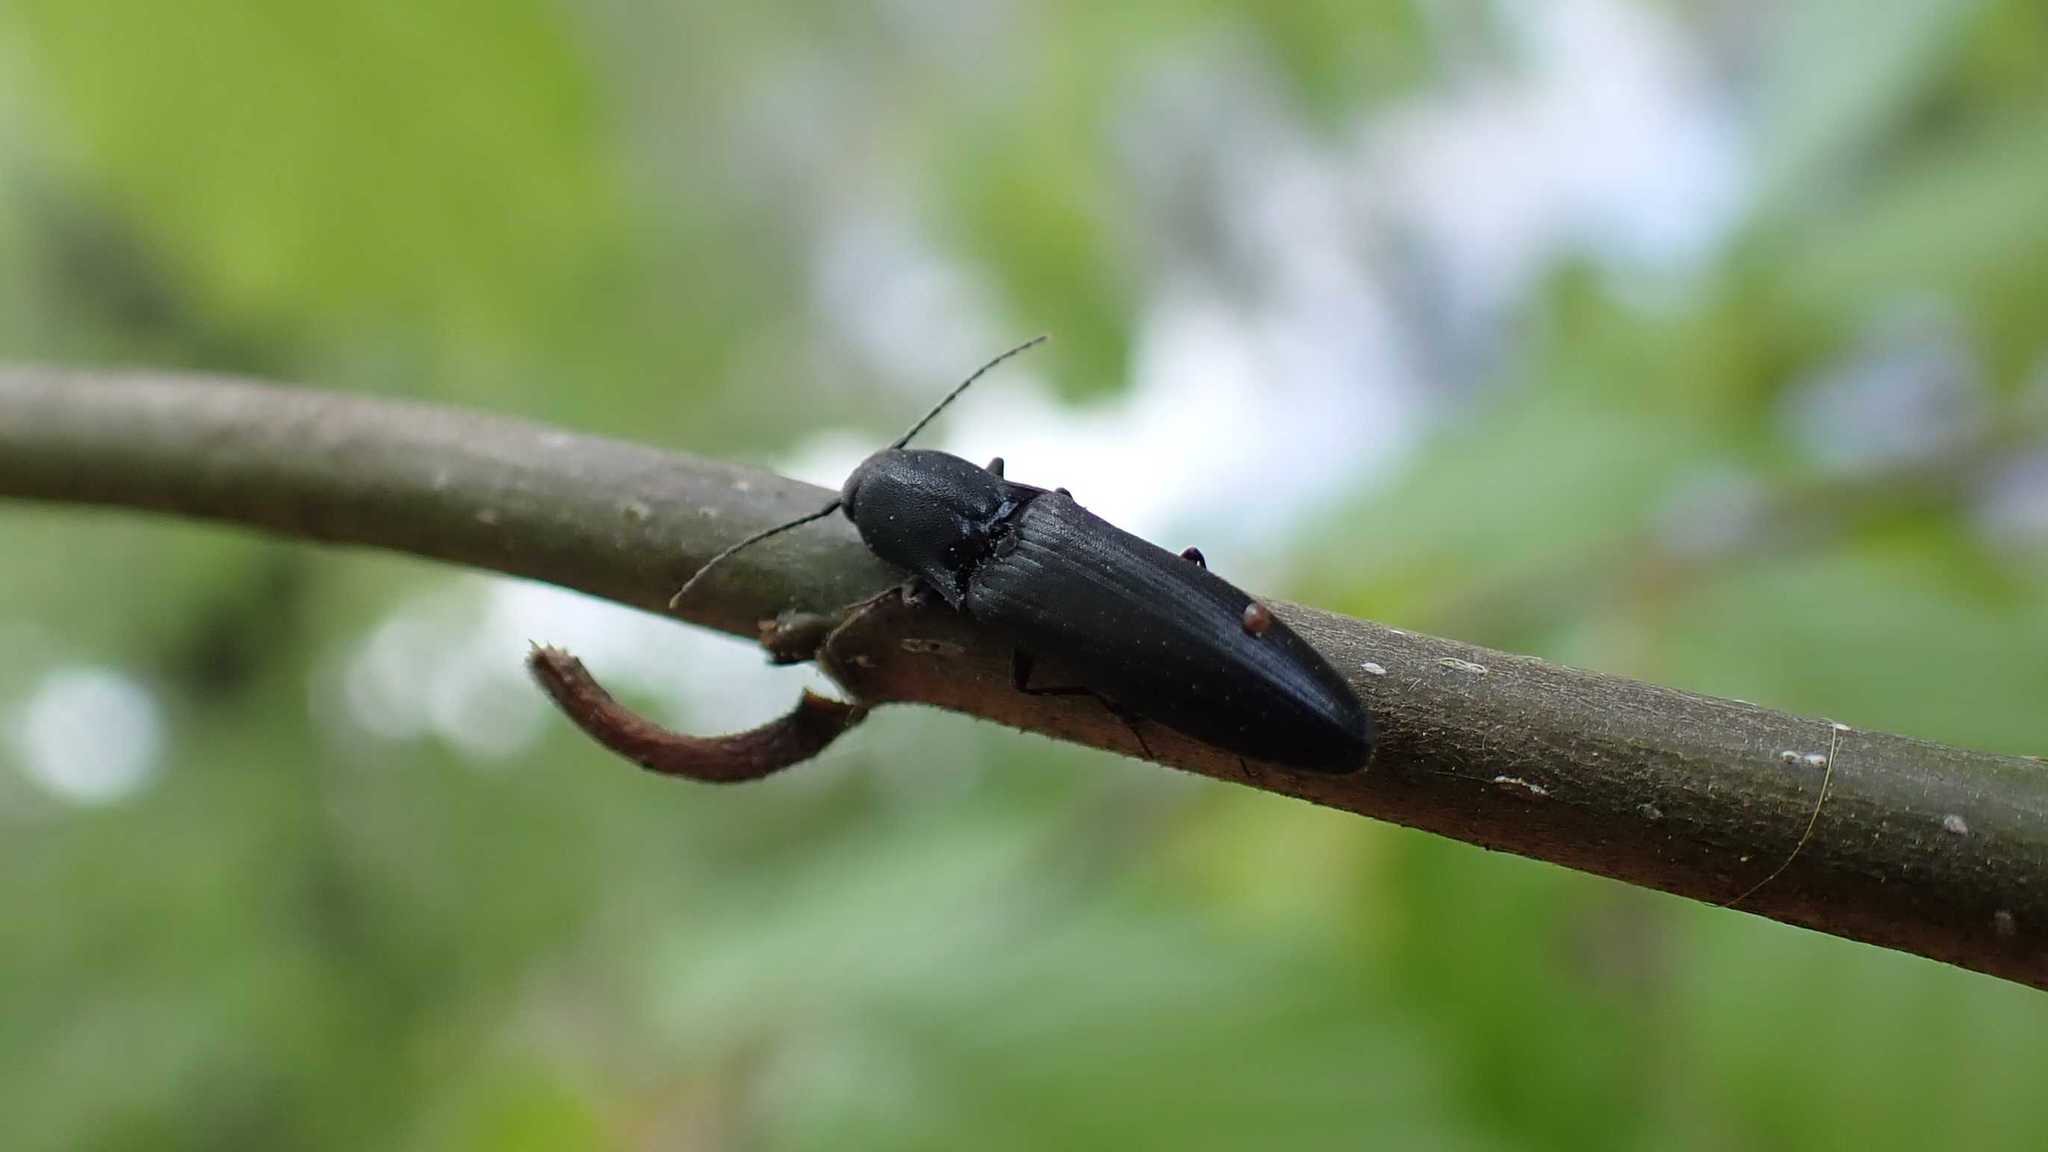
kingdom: Animalia
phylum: Arthropoda
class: Insecta
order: Coleoptera
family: Elateridae
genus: Ectinus
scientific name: Ectinus aterrimus
